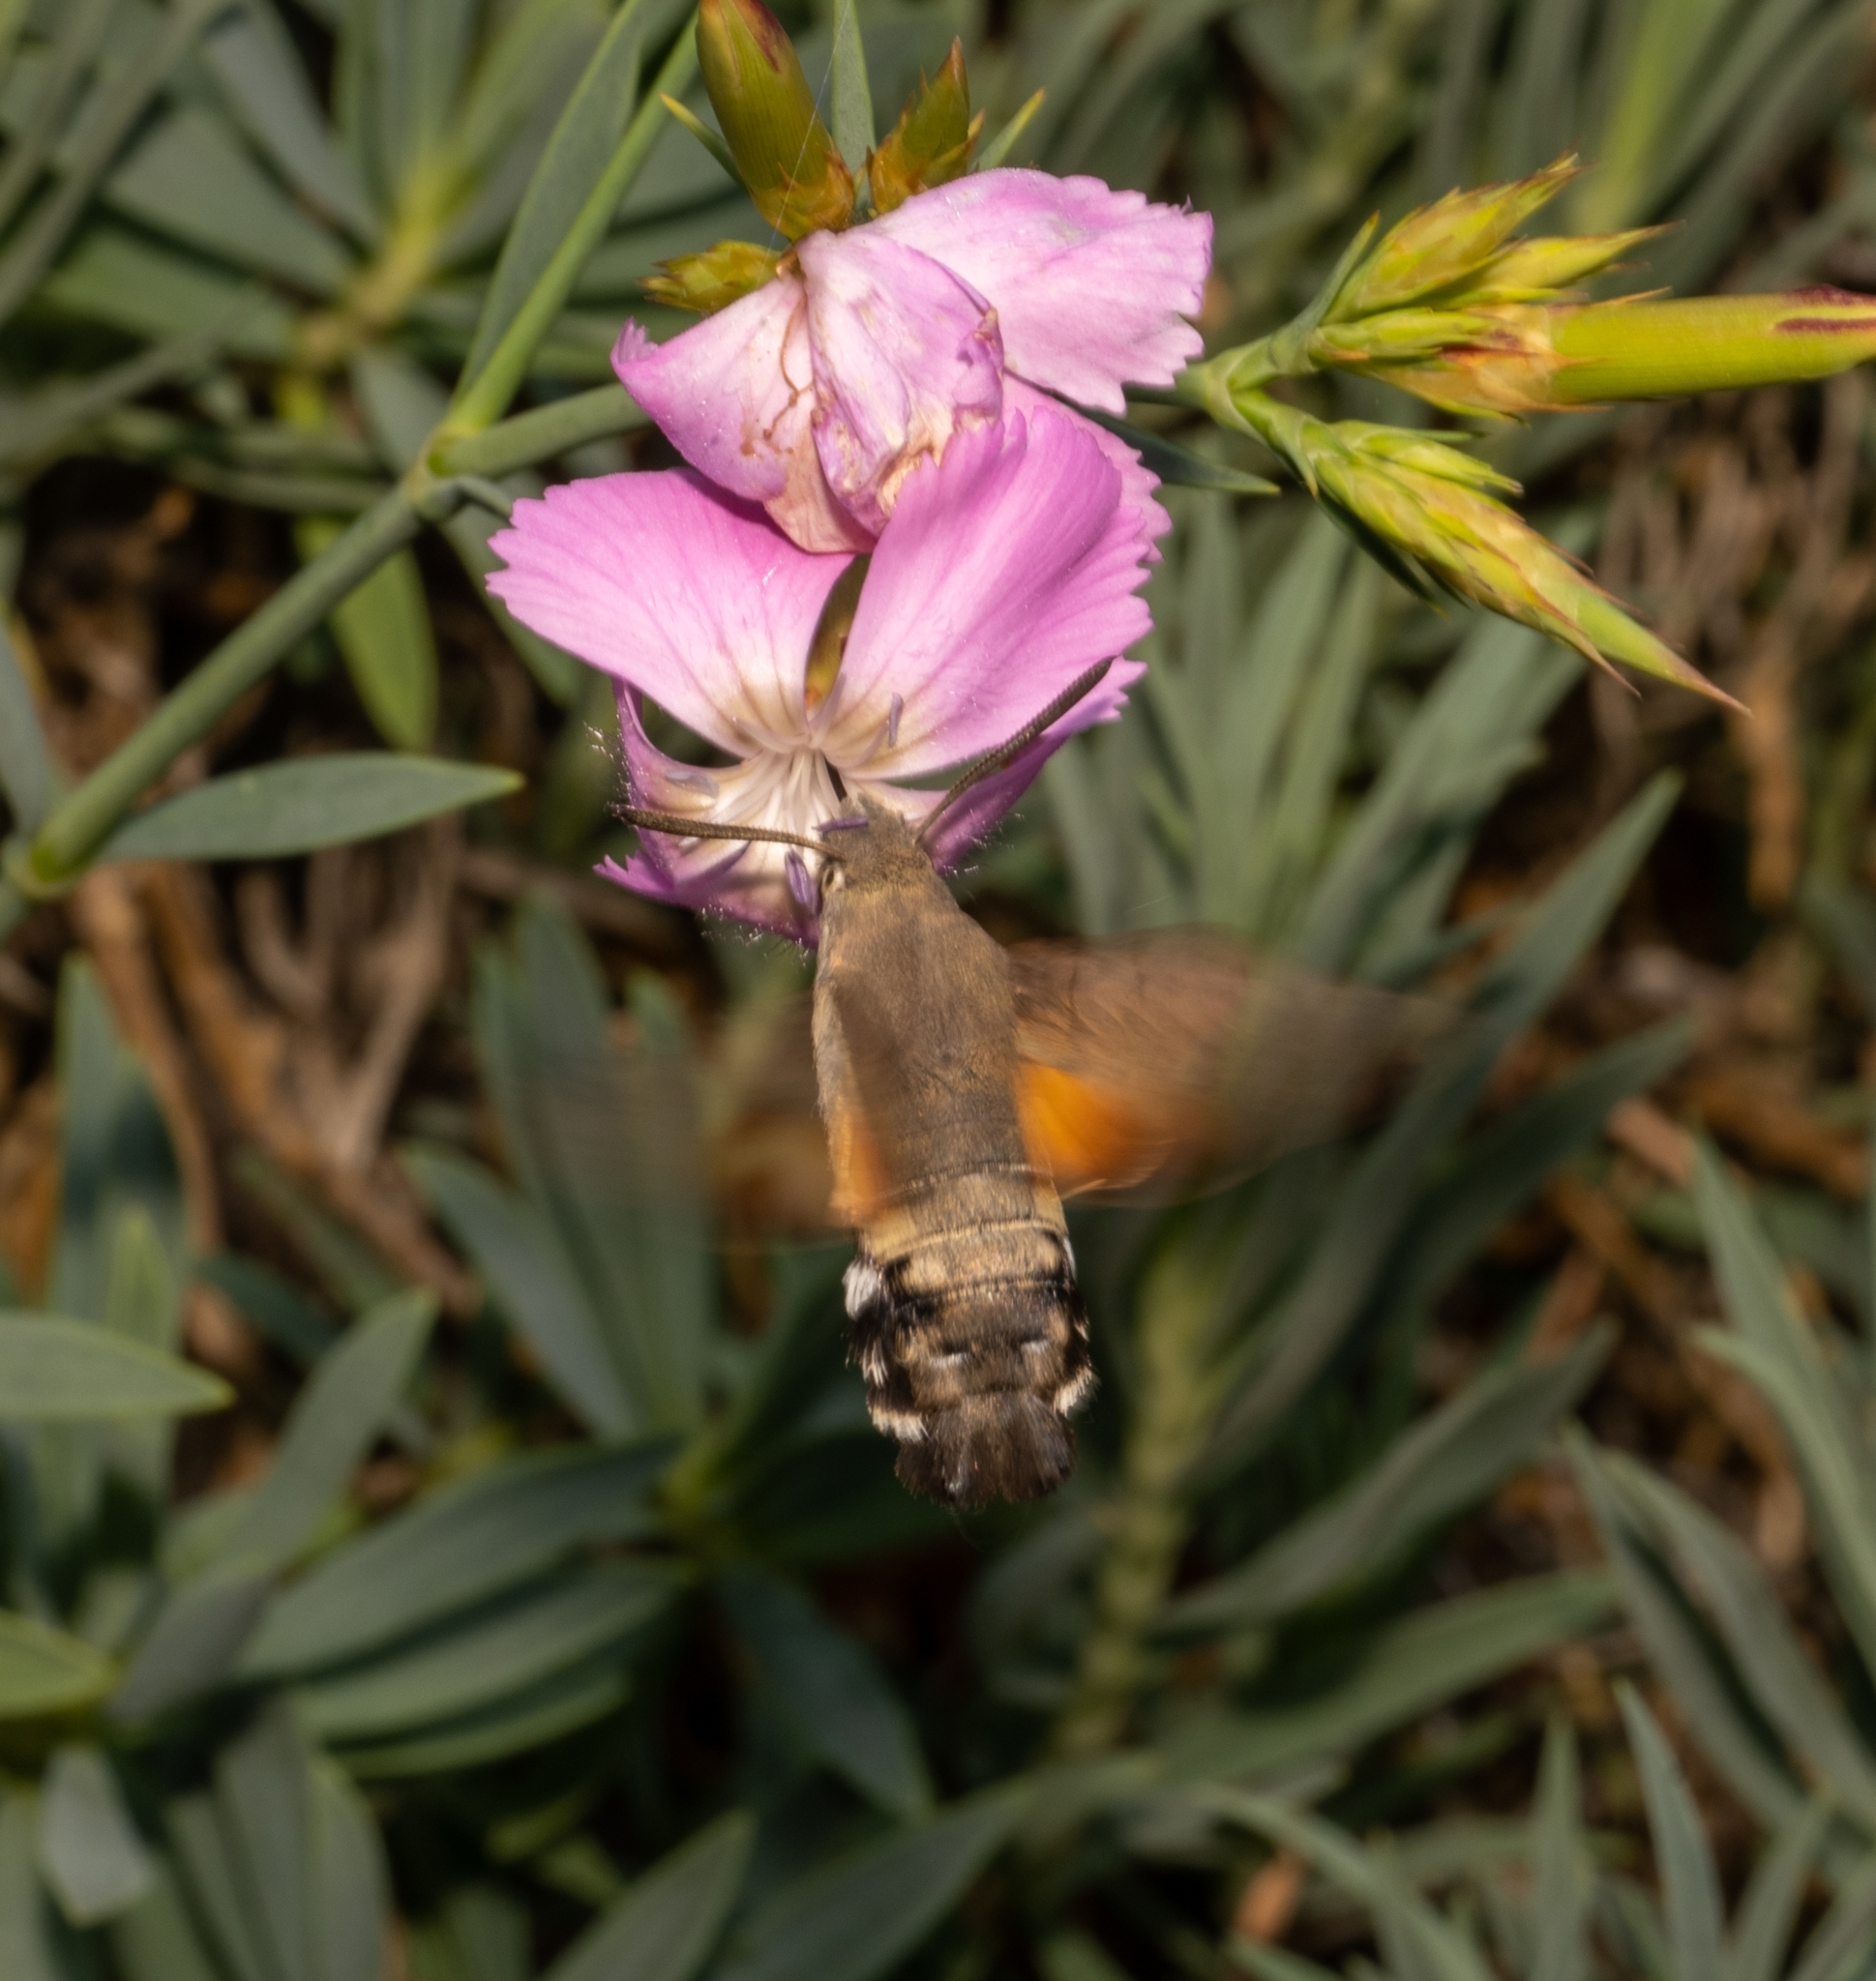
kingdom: Animalia
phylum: Arthropoda
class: Insecta
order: Lepidoptera
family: Sphingidae
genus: Macroglossum
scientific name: Macroglossum stellatarum
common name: Humming-bird hawk-moth
